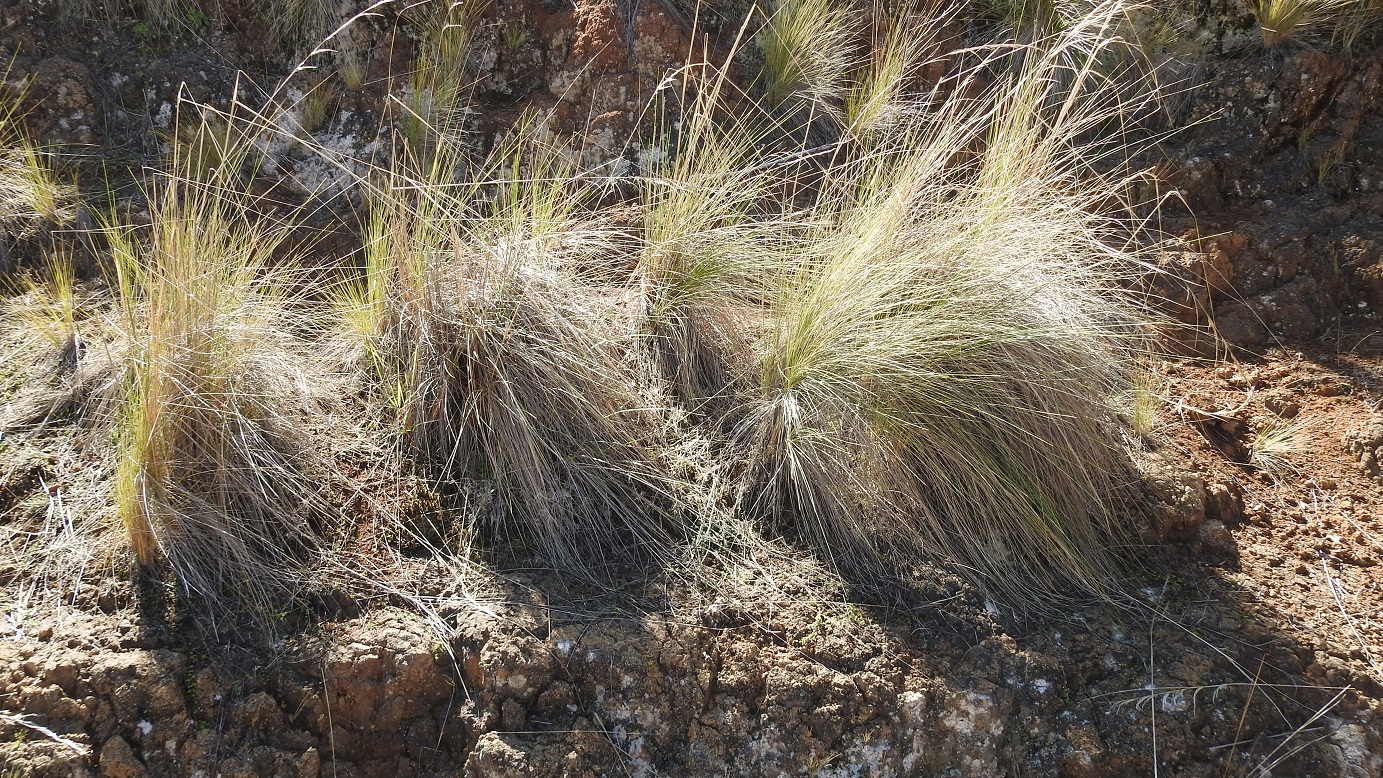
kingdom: Plantae
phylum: Tracheophyta
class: Liliopsida
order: Poales
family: Poaceae
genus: Jarava
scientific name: Jarava ichu
